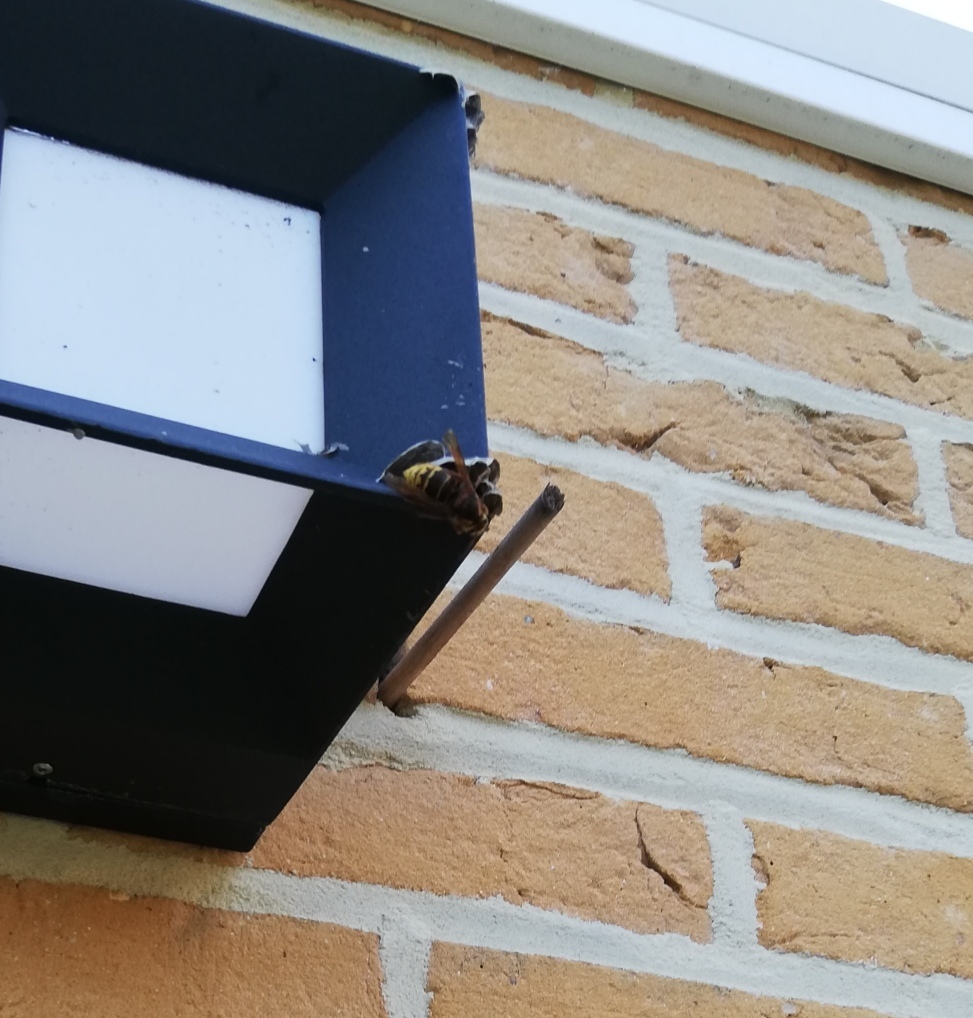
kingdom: Animalia
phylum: Arthropoda
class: Insecta
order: Hymenoptera
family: Vespidae
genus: Vespa
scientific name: Vespa crabro
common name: Hornet
